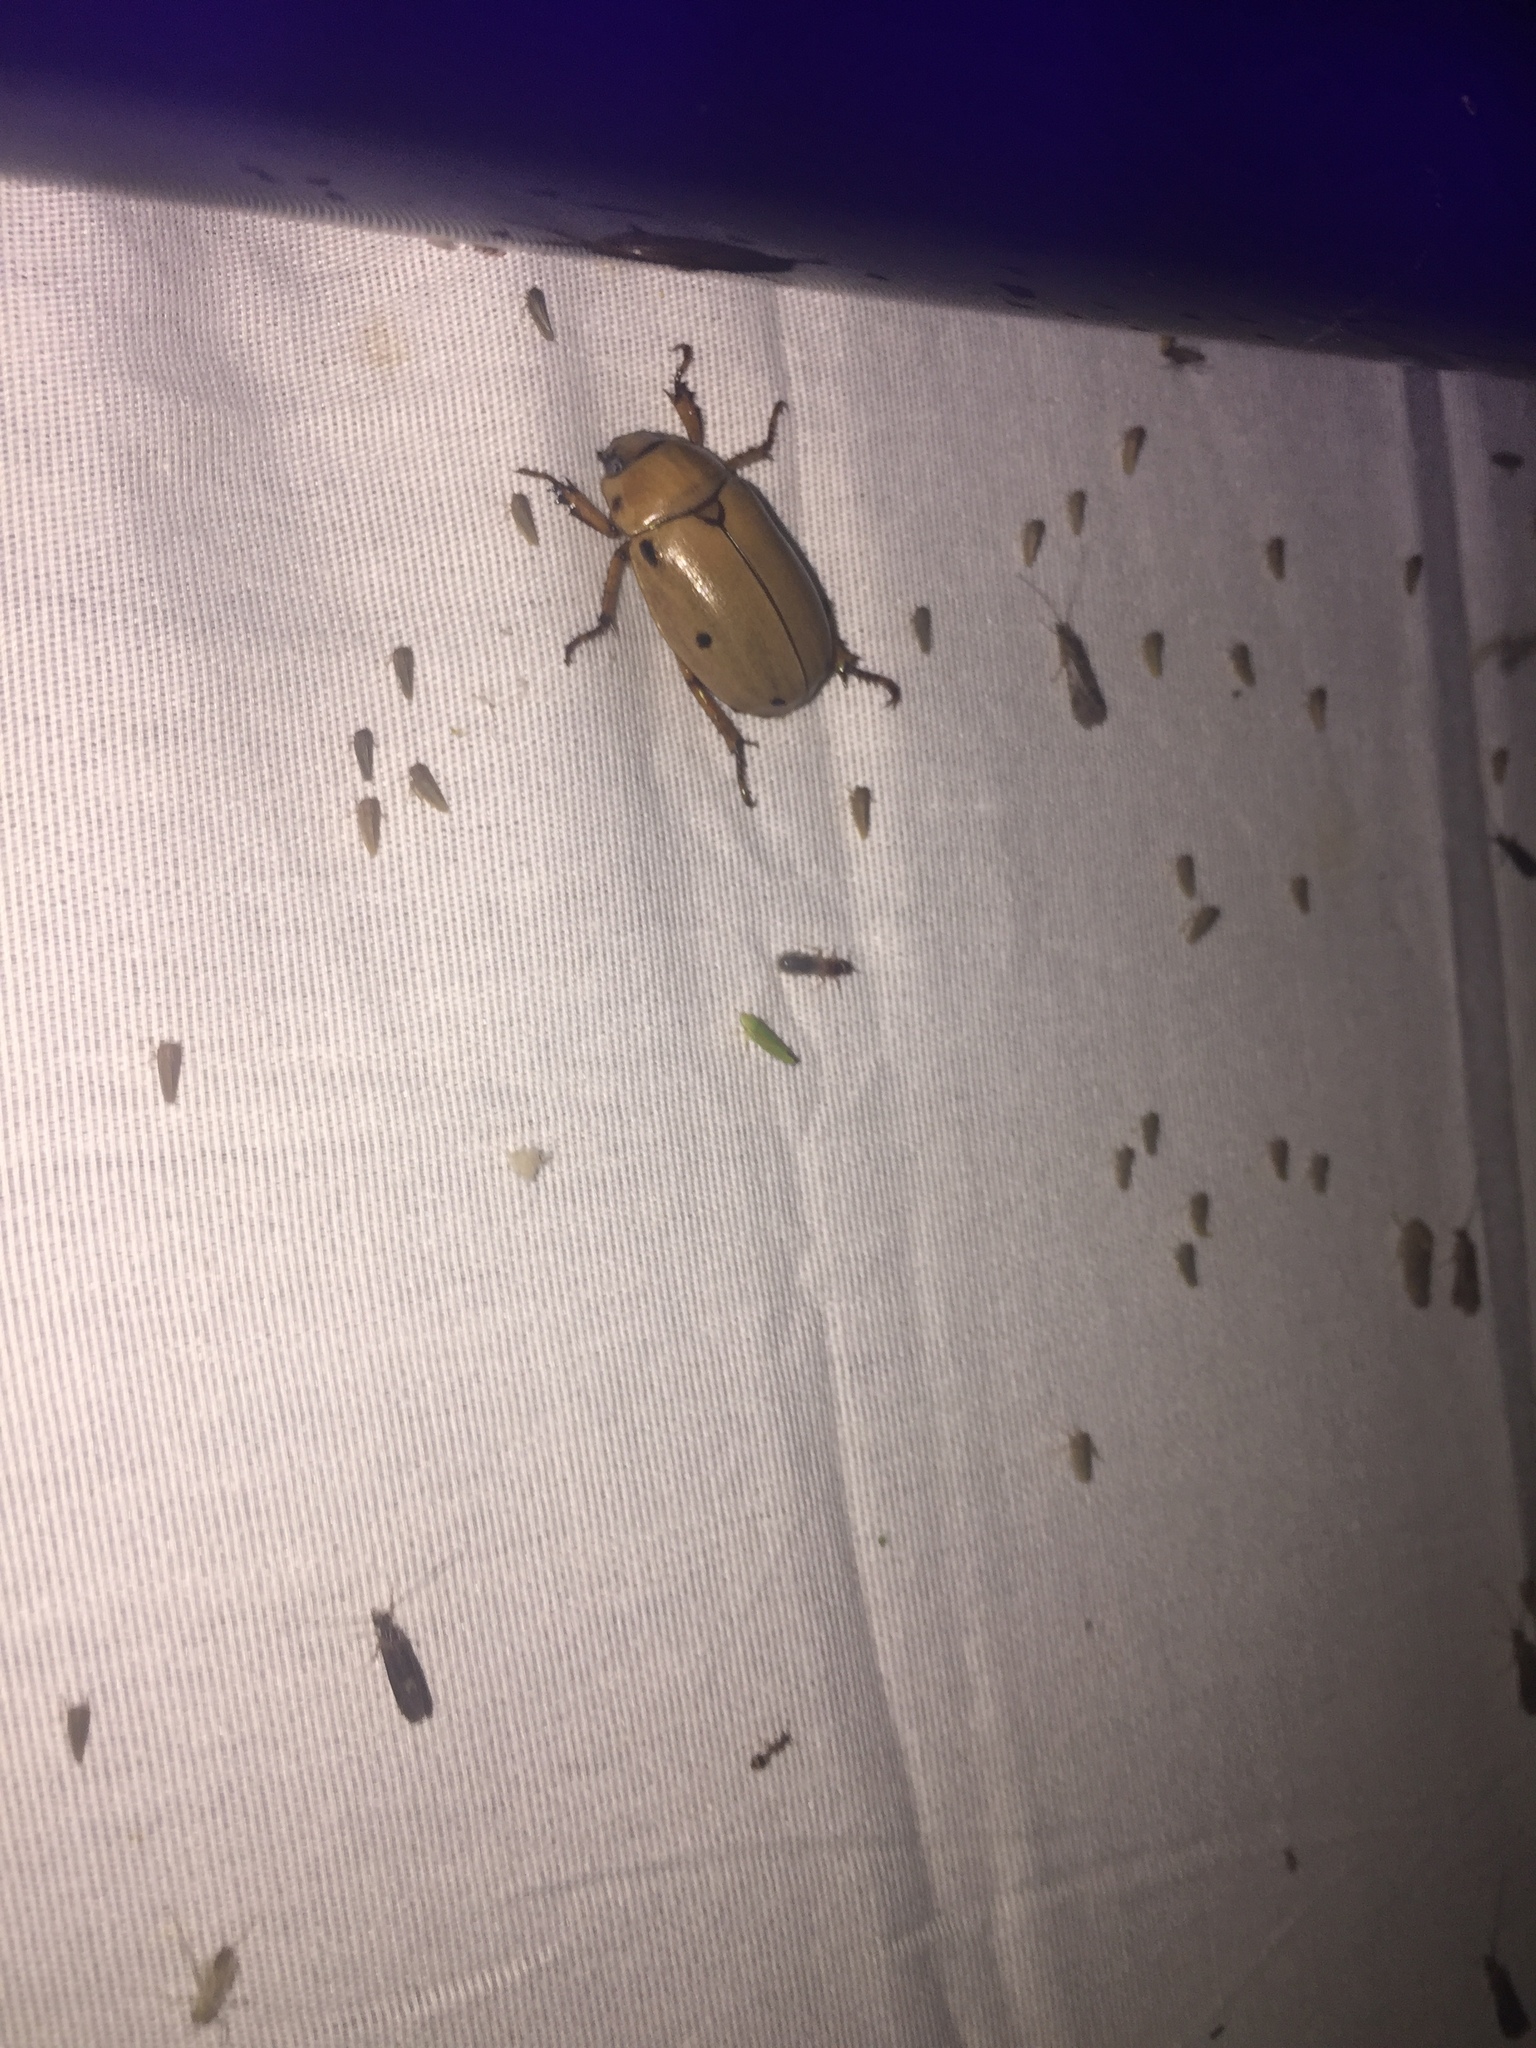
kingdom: Animalia
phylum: Arthropoda
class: Insecta
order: Coleoptera
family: Scarabaeidae
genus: Pelidnota
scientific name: Pelidnota punctata
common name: Grapevine beetle
